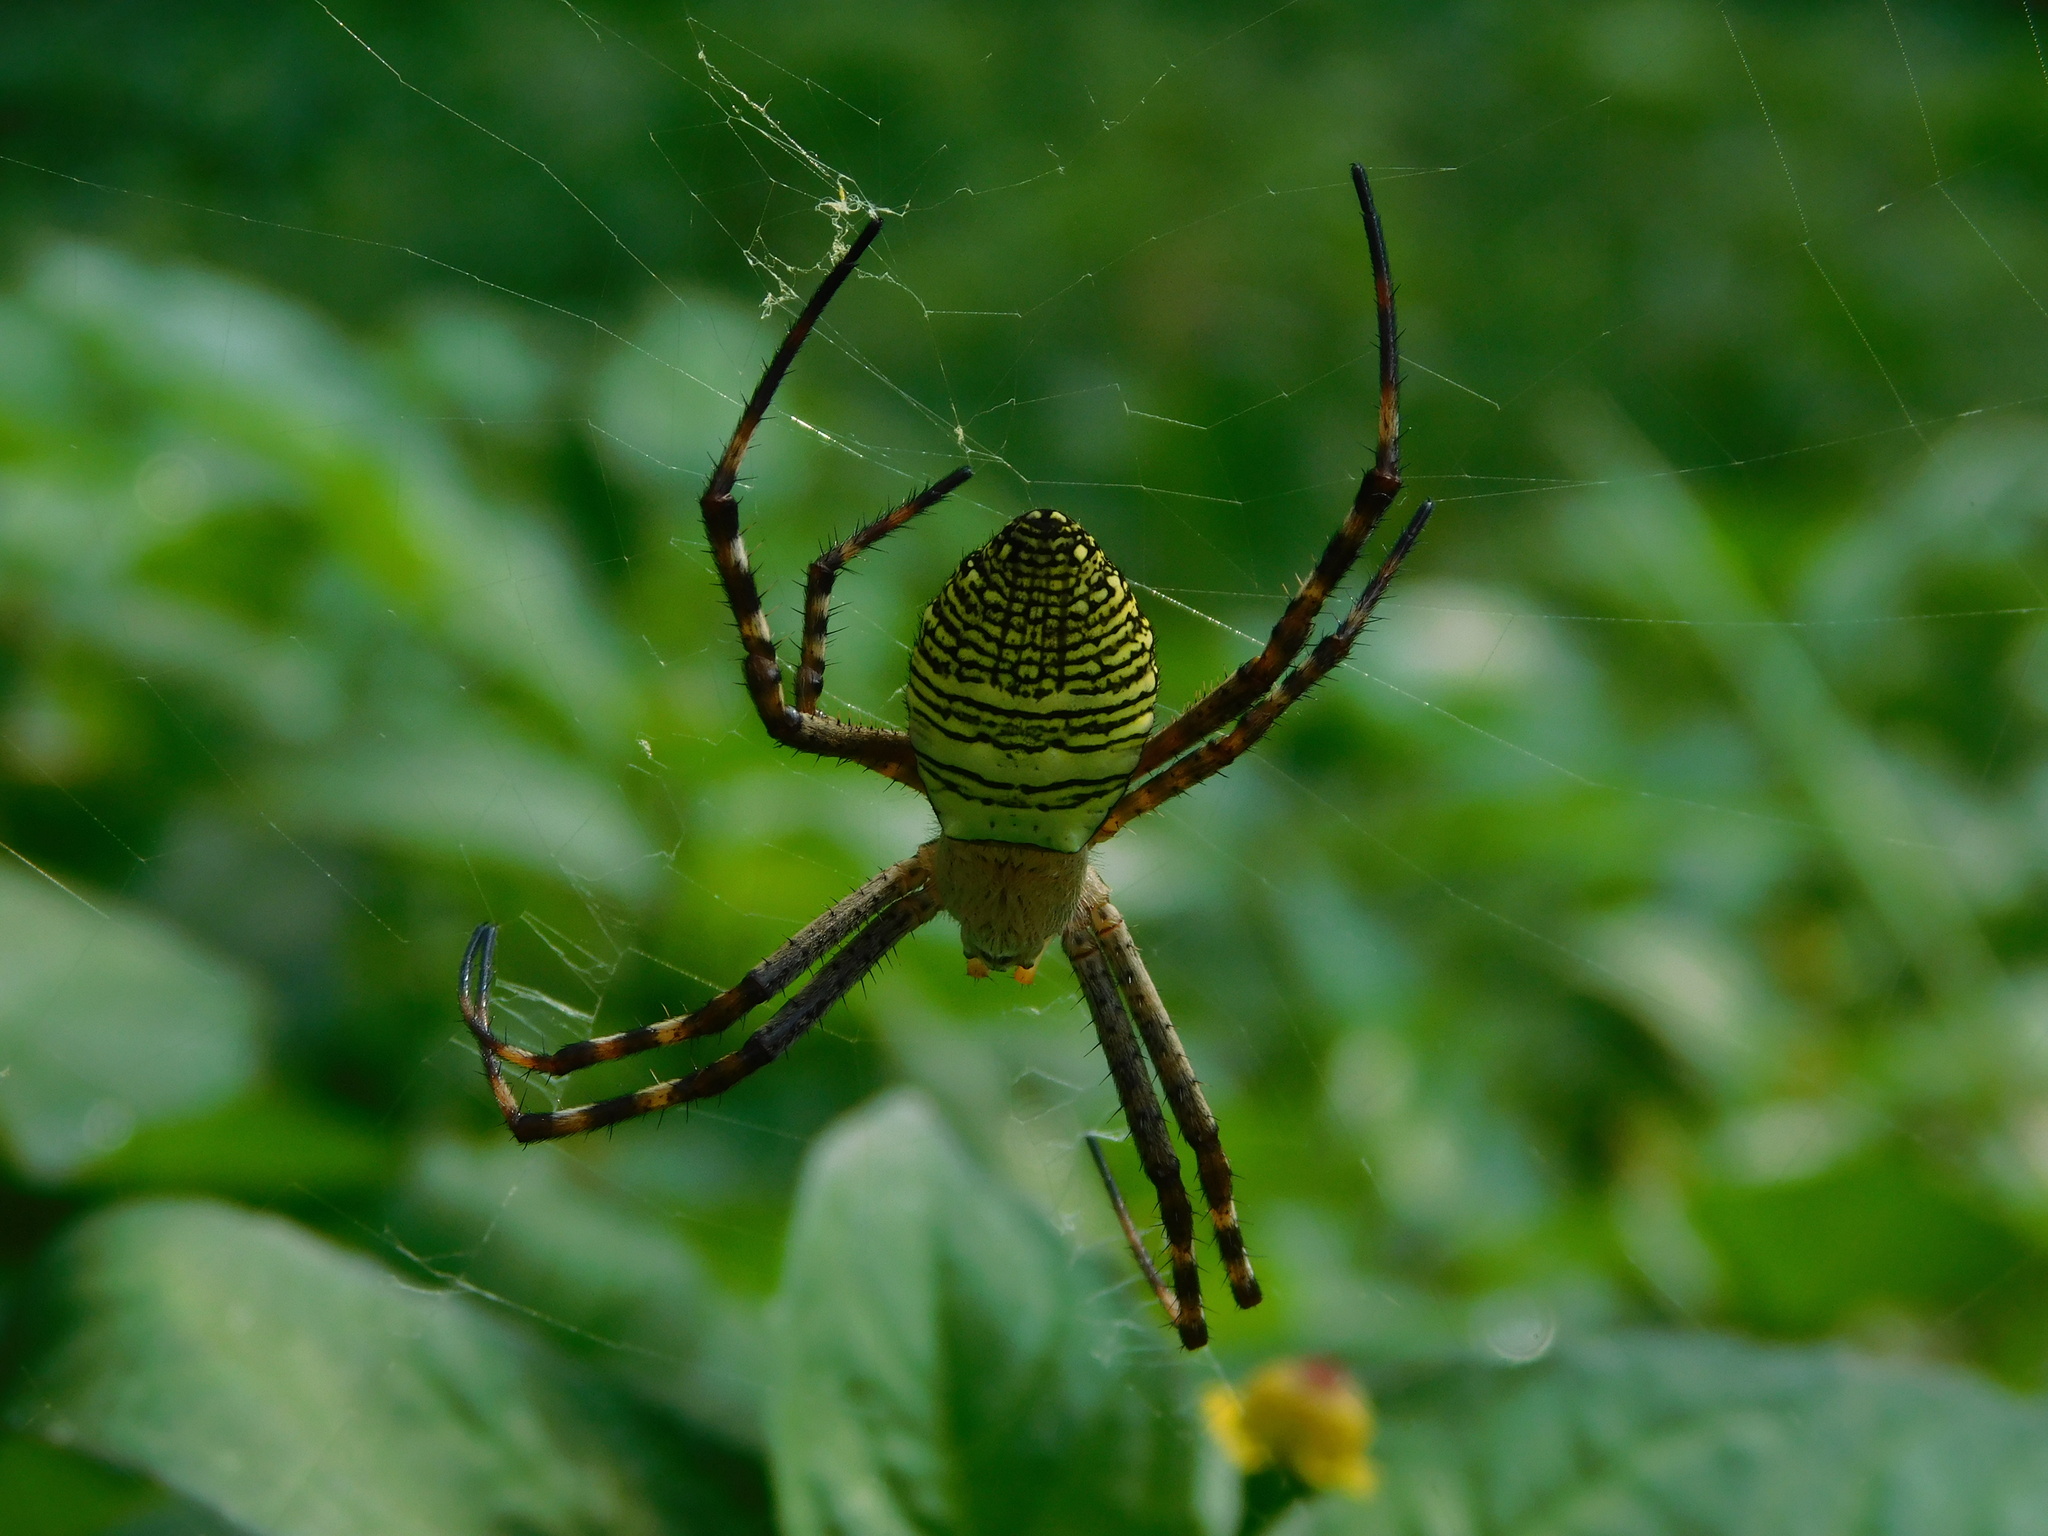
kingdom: Animalia
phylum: Arthropoda
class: Arachnida
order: Araneae
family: Araneidae
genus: Argiope
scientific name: Argiope aemula
